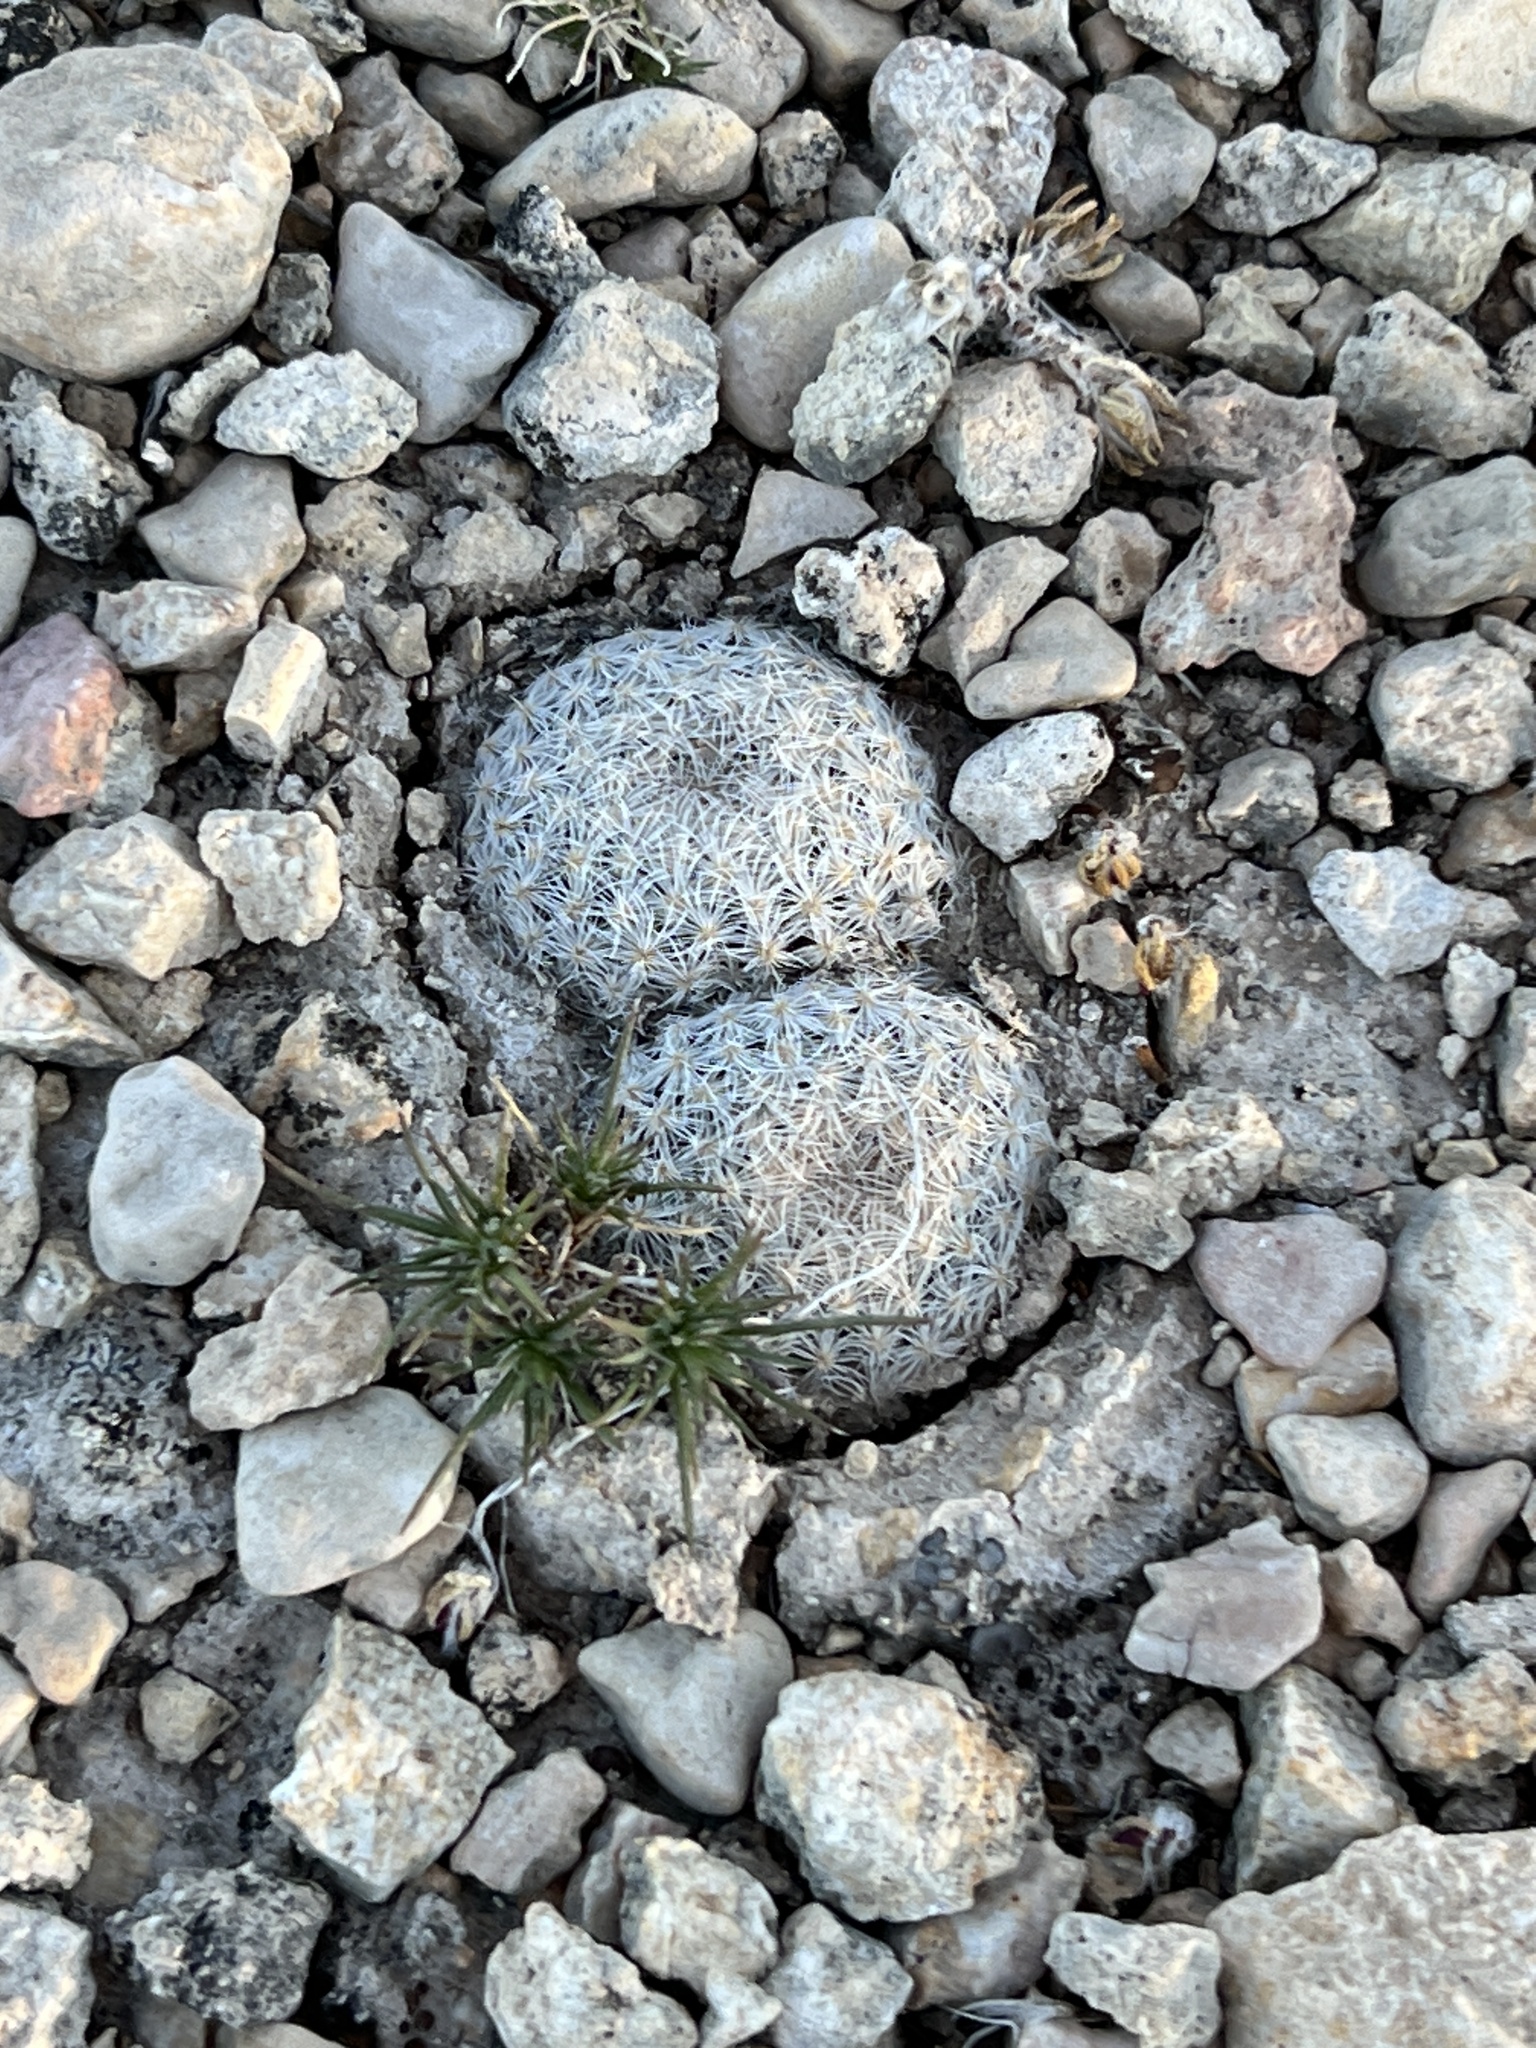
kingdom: Plantae
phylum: Tracheophyta
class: Magnoliopsida
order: Caryophyllales
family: Cactaceae
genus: Epithelantha
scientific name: Epithelantha micromeris
